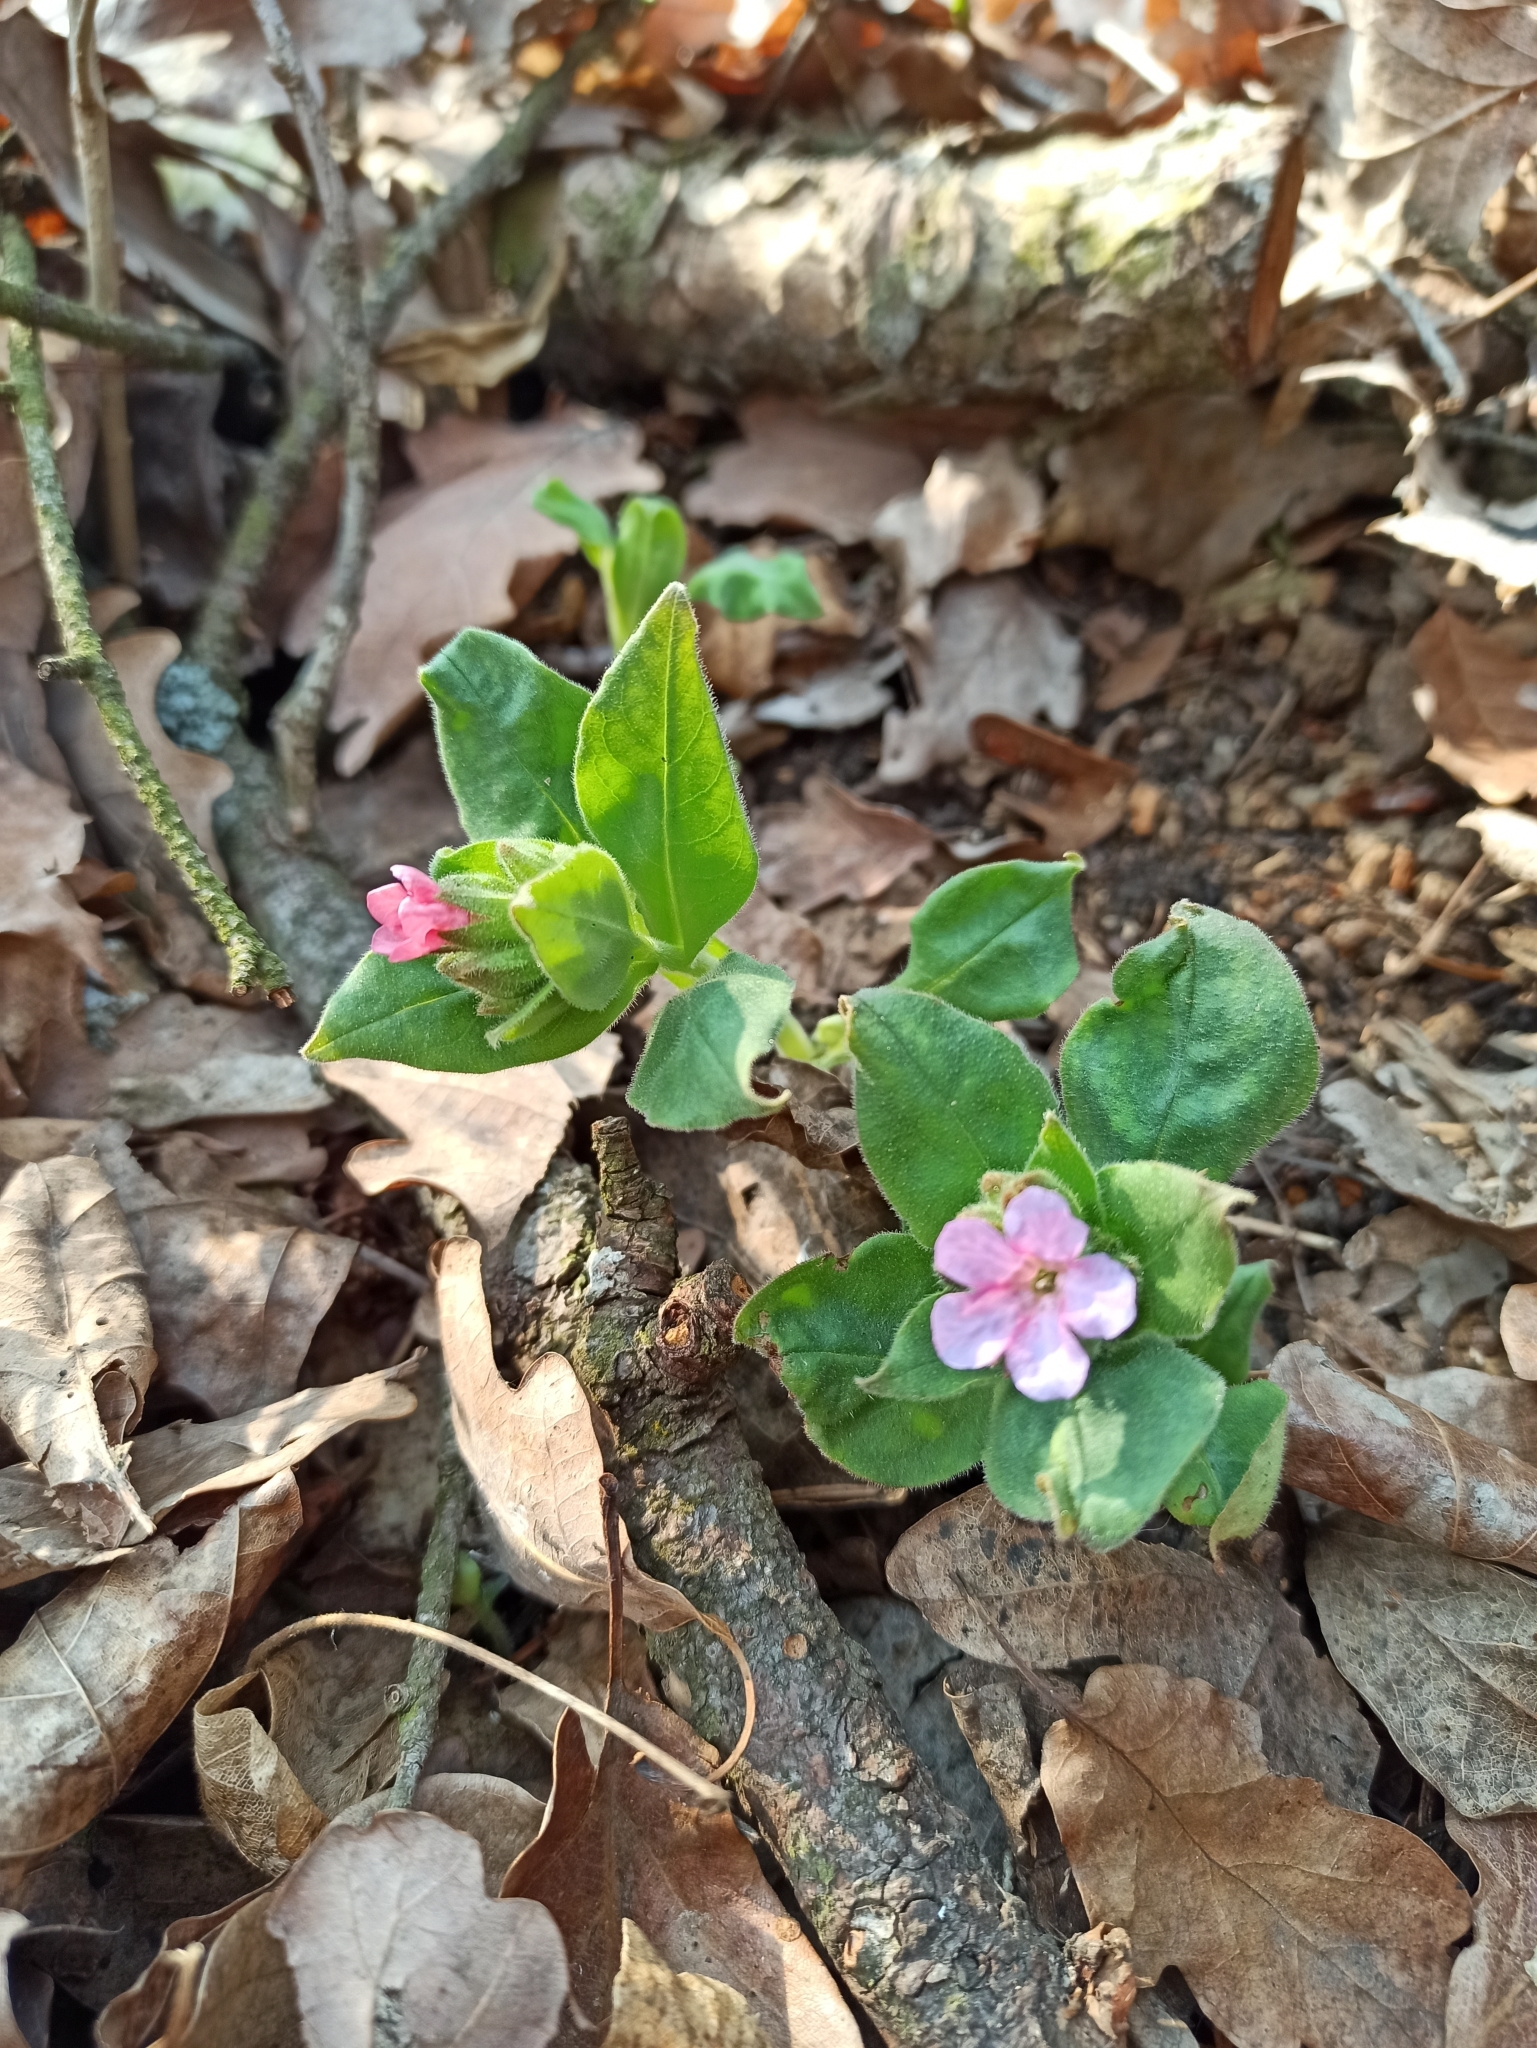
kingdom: Plantae
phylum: Tracheophyta
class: Magnoliopsida
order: Boraginales
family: Boraginaceae
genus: Pulmonaria
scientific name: Pulmonaria obscura
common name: Suffolk lungwort
